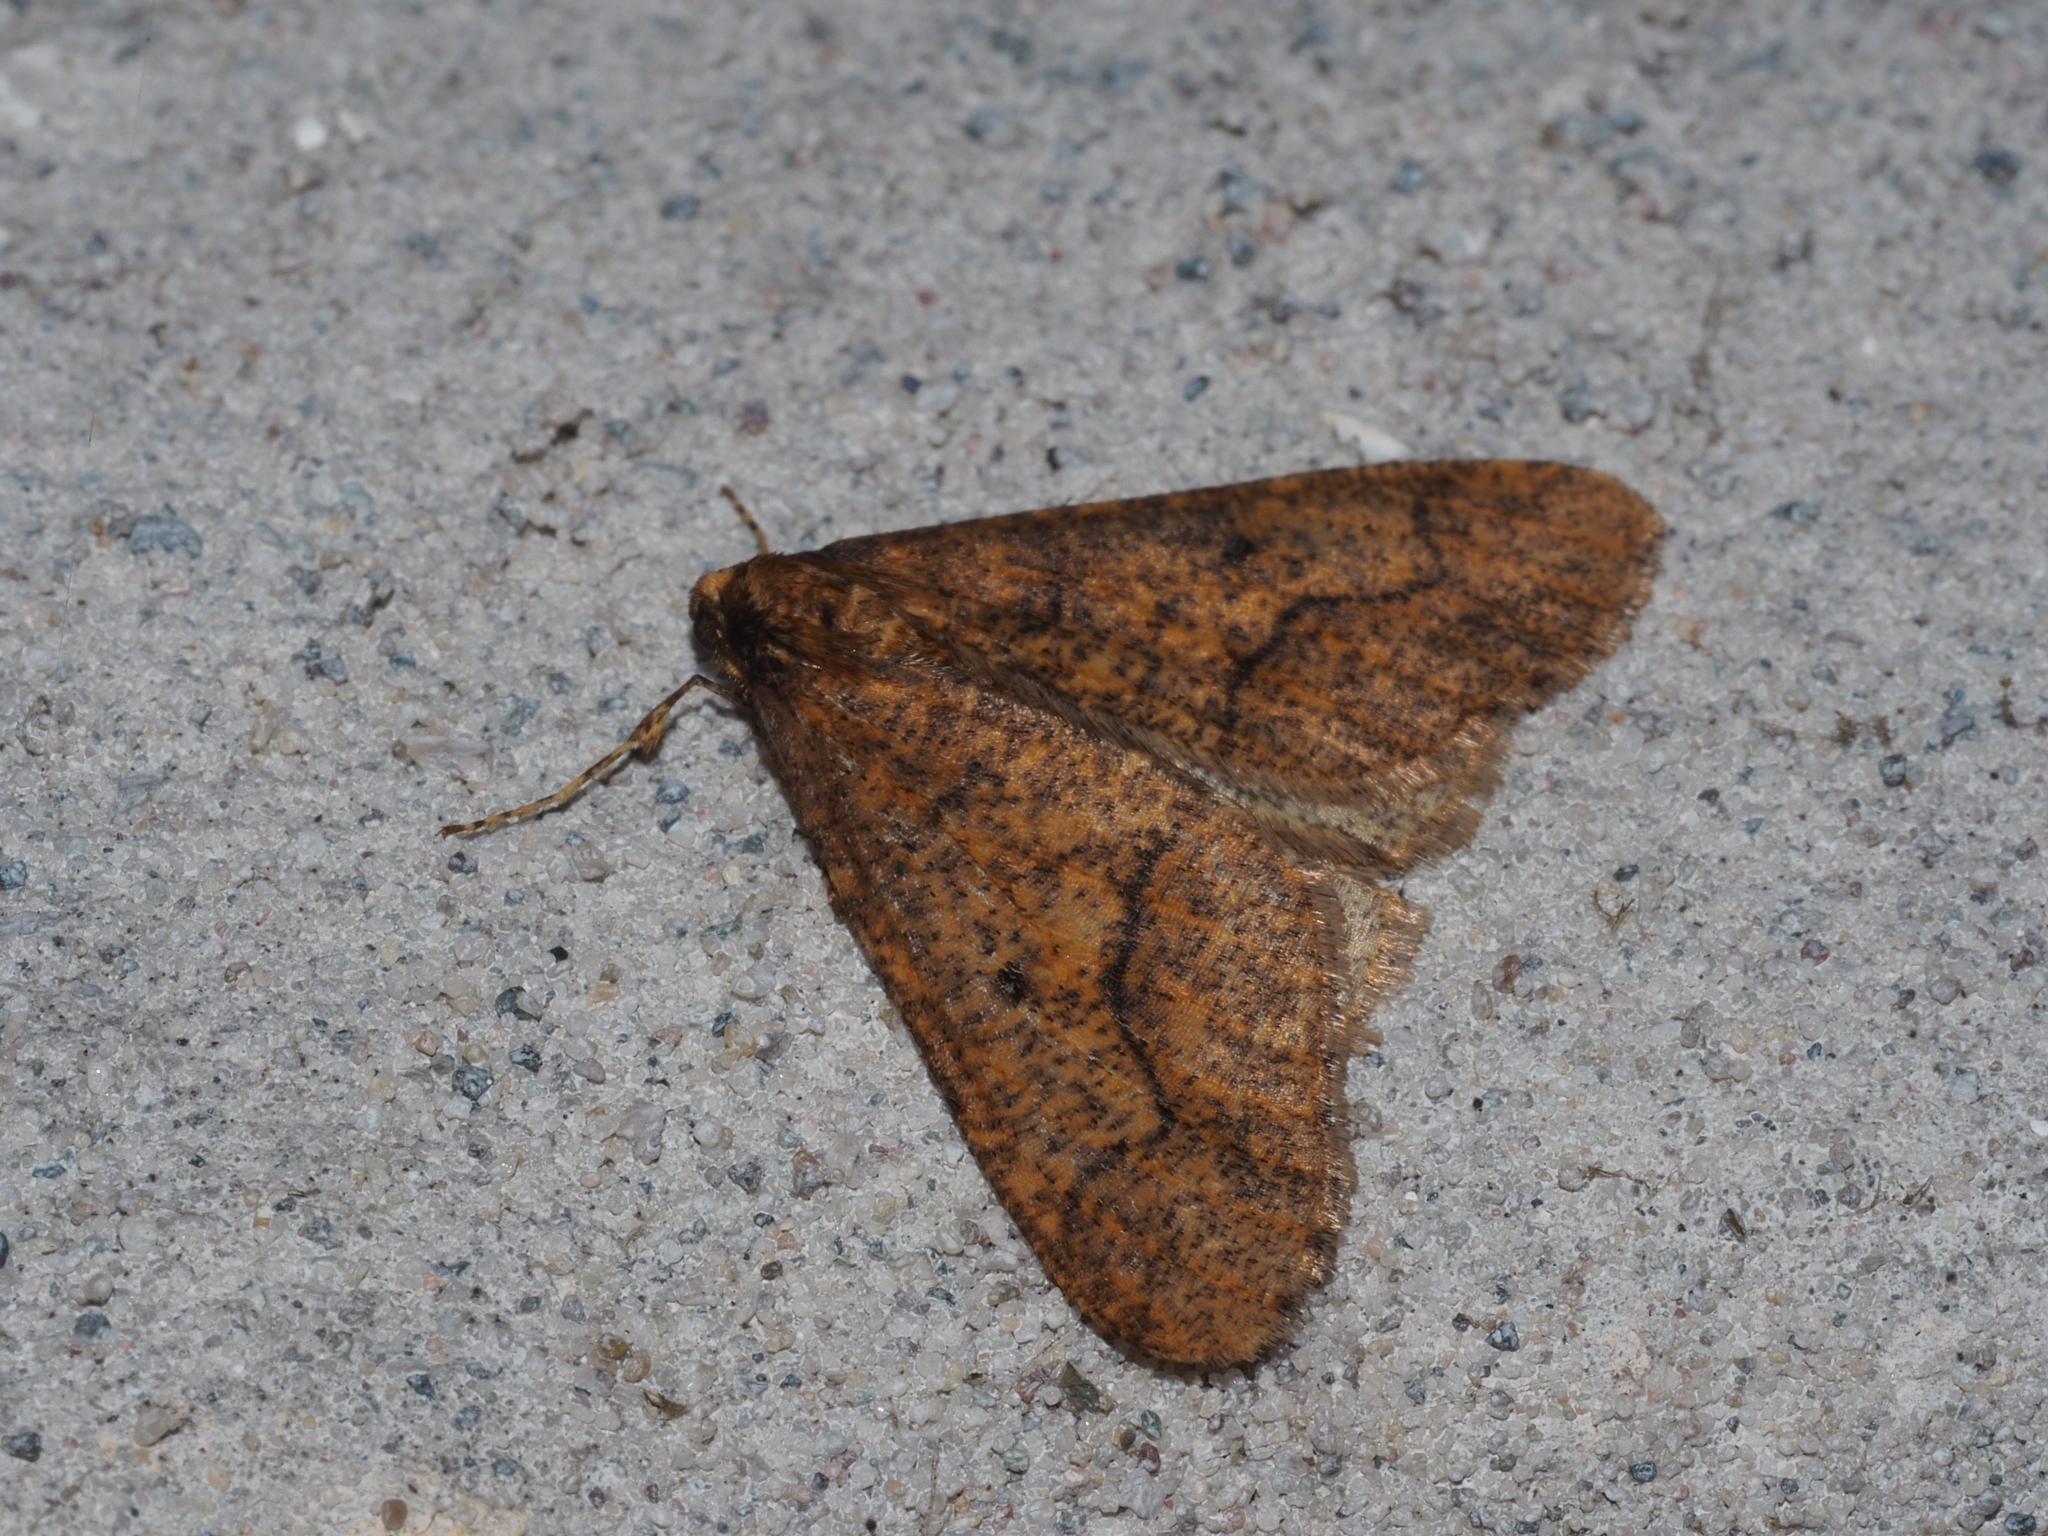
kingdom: Animalia
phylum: Arthropoda
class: Insecta
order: Lepidoptera
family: Geometridae
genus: Erannis
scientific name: Erannis defoliaria
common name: Mottled umber
